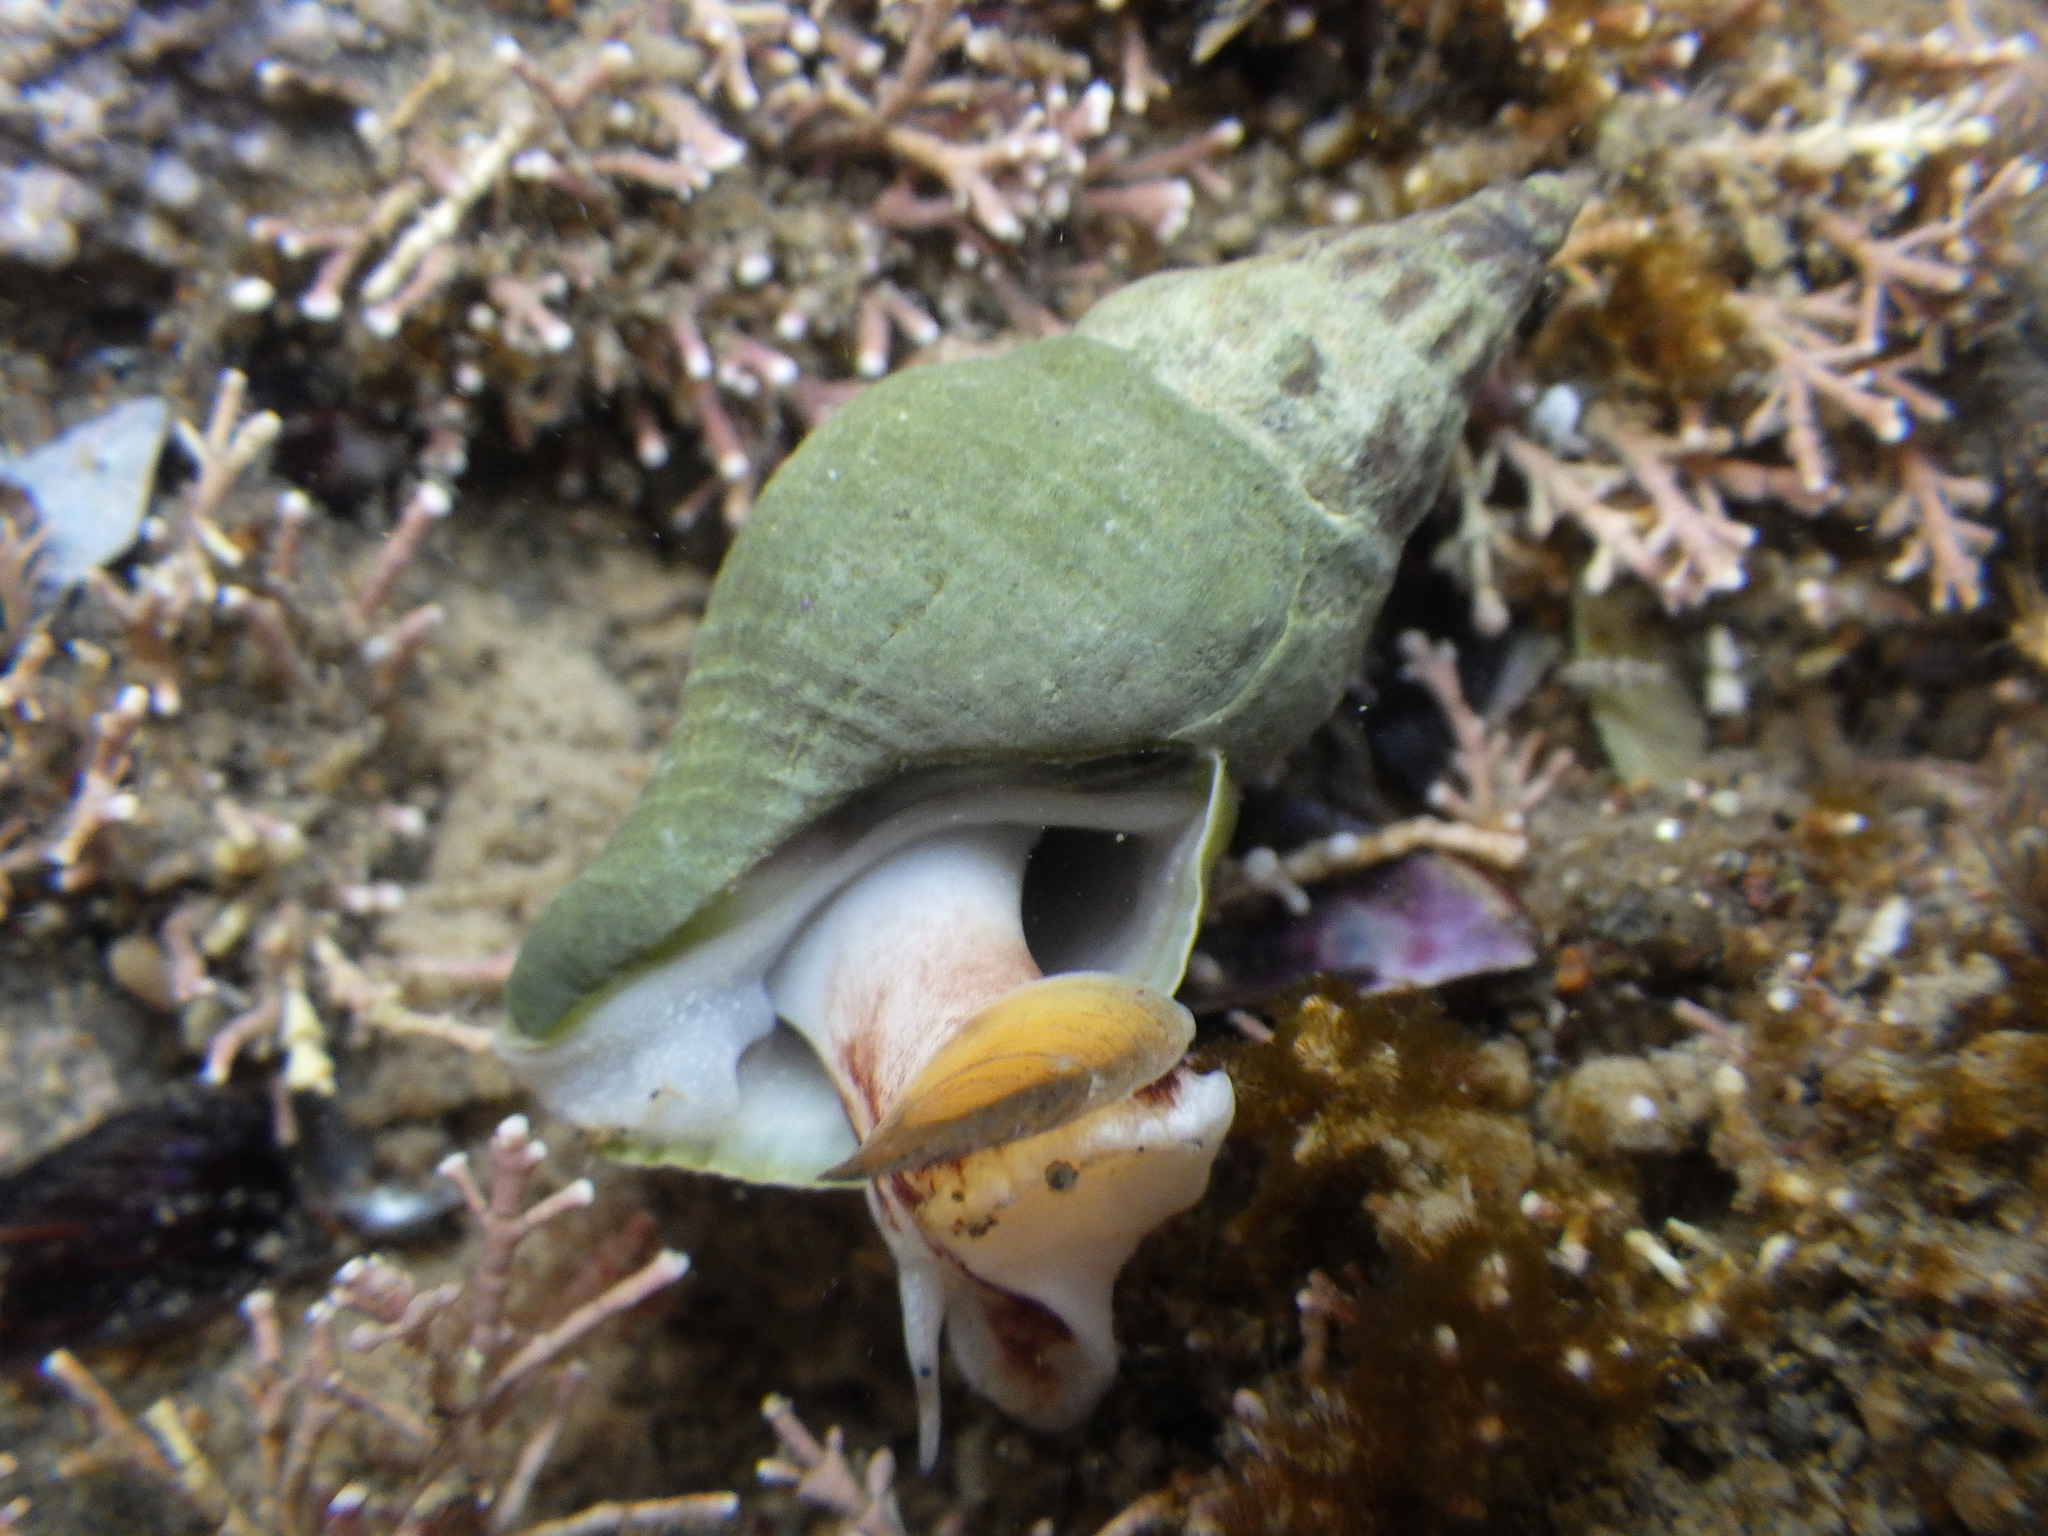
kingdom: Animalia
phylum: Mollusca
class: Gastropoda
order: Neogastropoda
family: Tudiclidae
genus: Buccinulum
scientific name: Buccinulum vittatum
